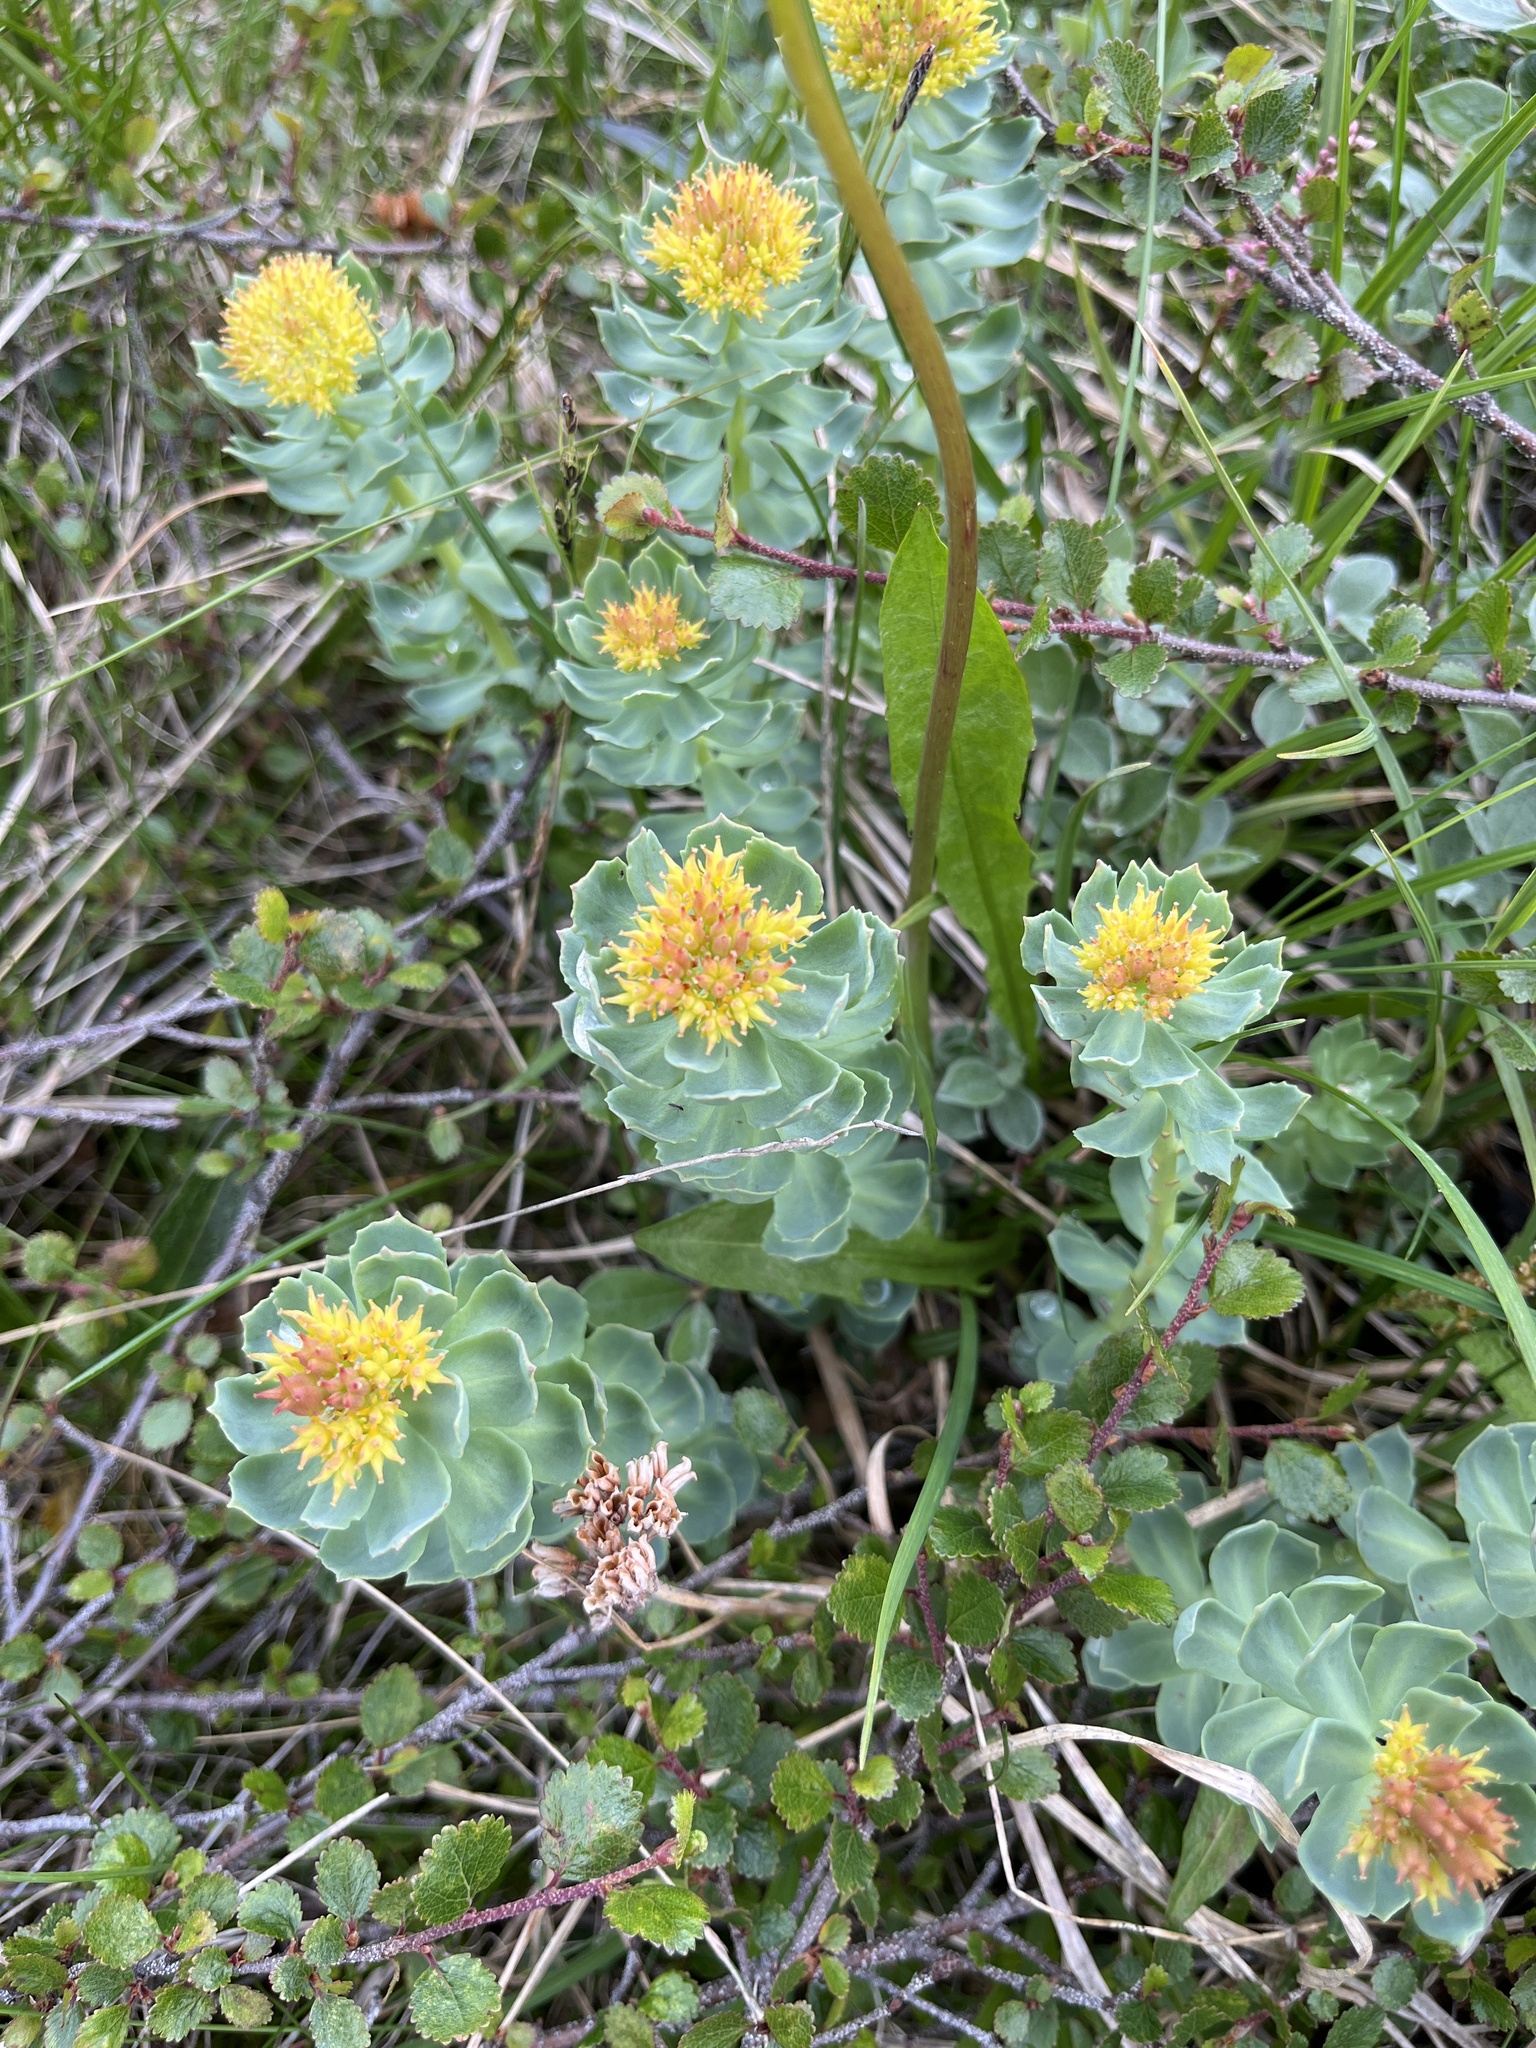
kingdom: Plantae
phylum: Tracheophyta
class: Magnoliopsida
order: Saxifragales
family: Crassulaceae
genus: Rhodiola
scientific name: Rhodiola rosea
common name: Roseroot
